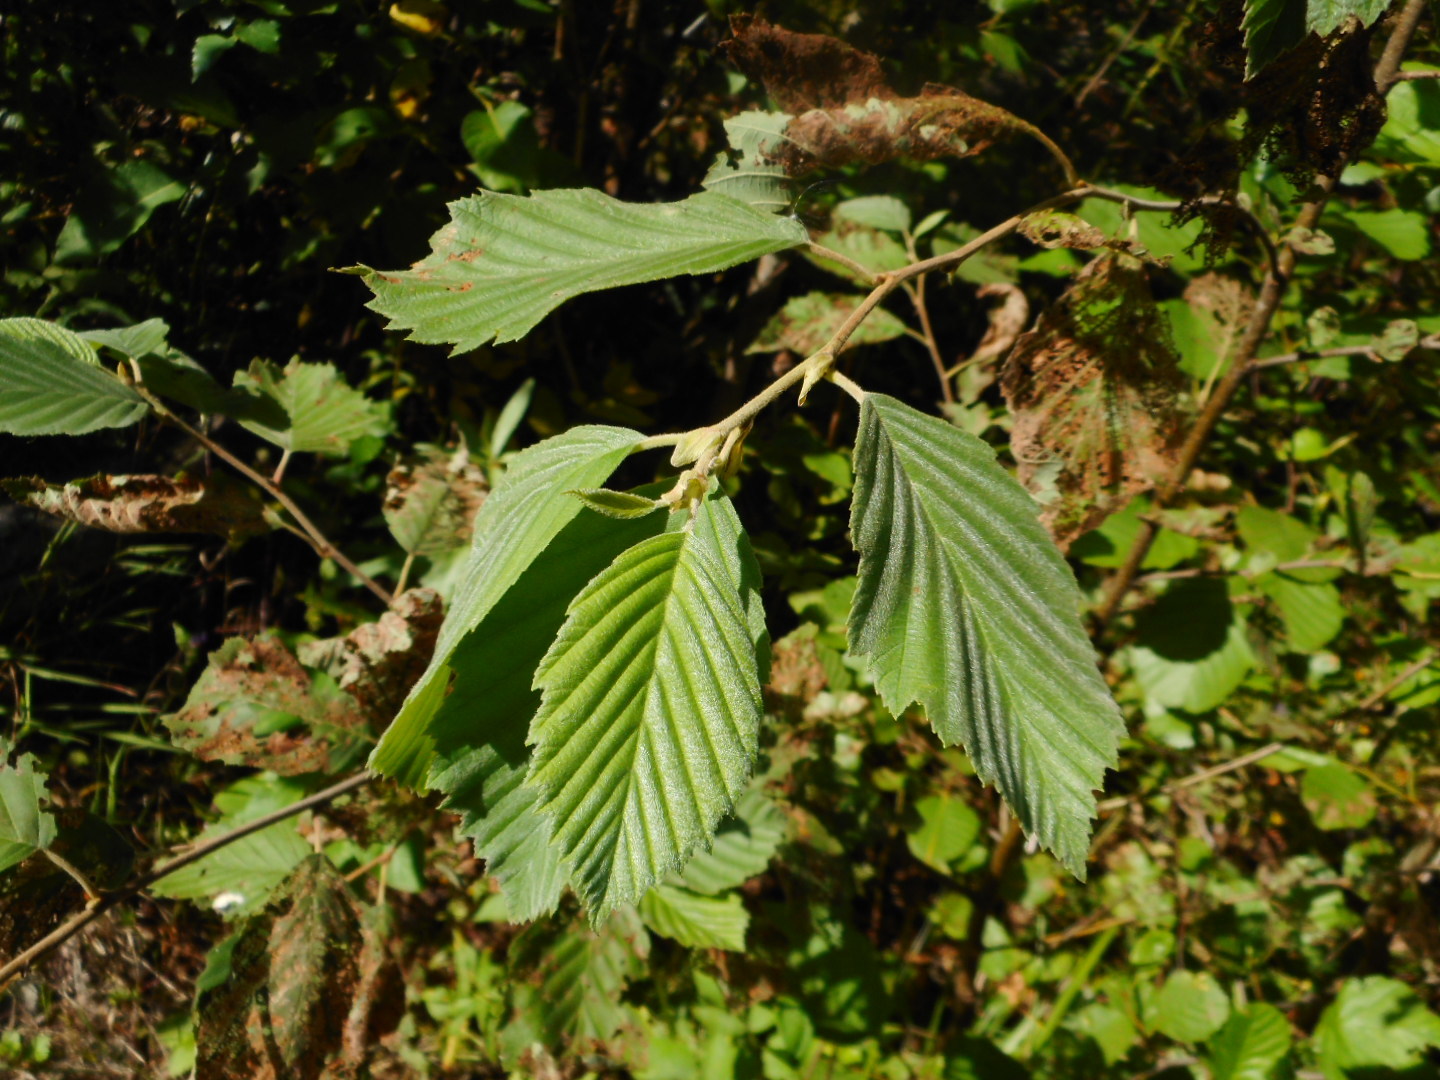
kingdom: Plantae
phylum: Tracheophyta
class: Magnoliopsida
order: Fagales
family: Betulaceae
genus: Alnus
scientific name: Alnus incana
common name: Grey alder
